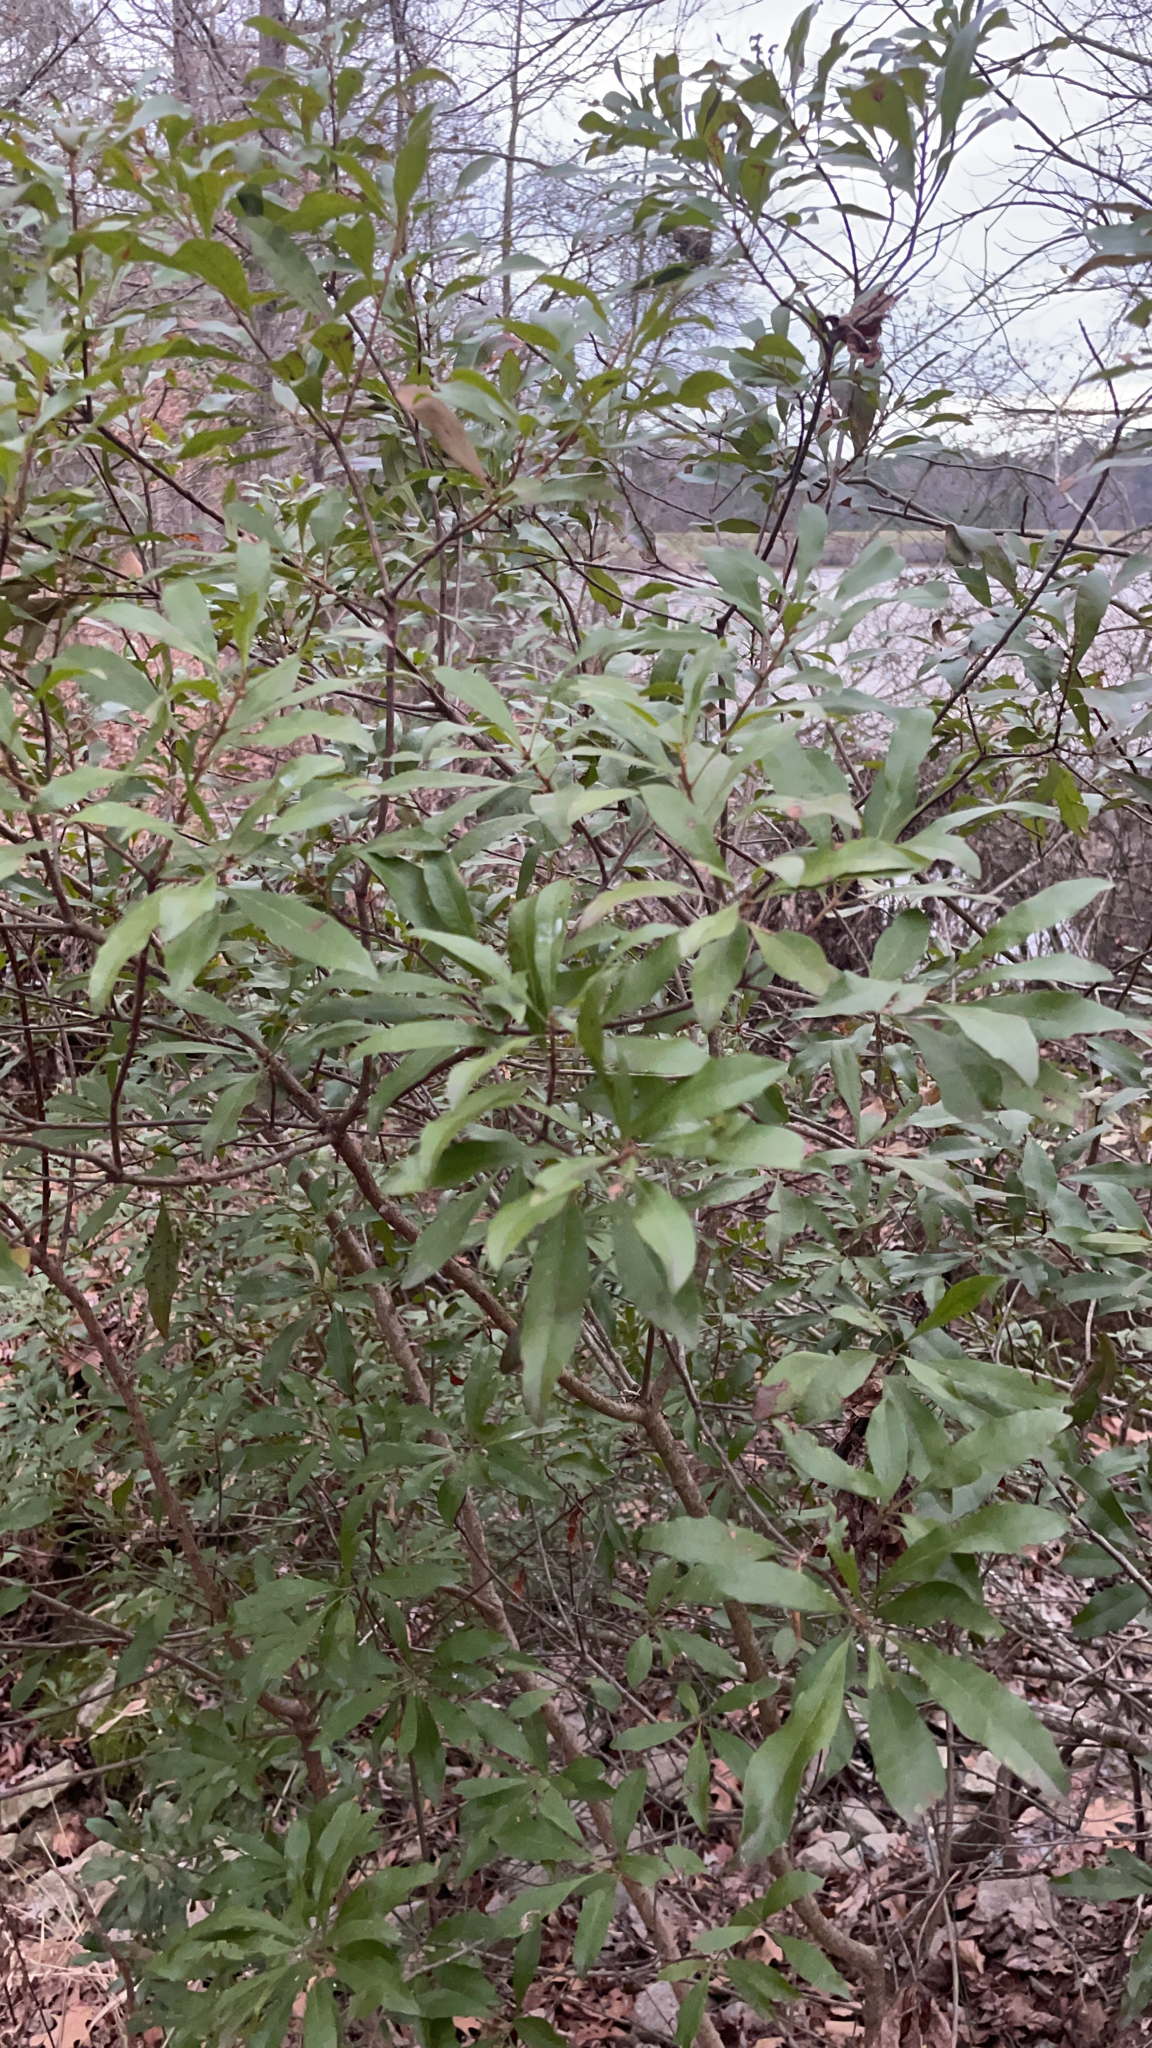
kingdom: Plantae
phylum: Tracheophyta
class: Magnoliopsida
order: Fagales
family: Myricaceae
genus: Morella
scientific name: Morella cerifera
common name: Wax myrtle
